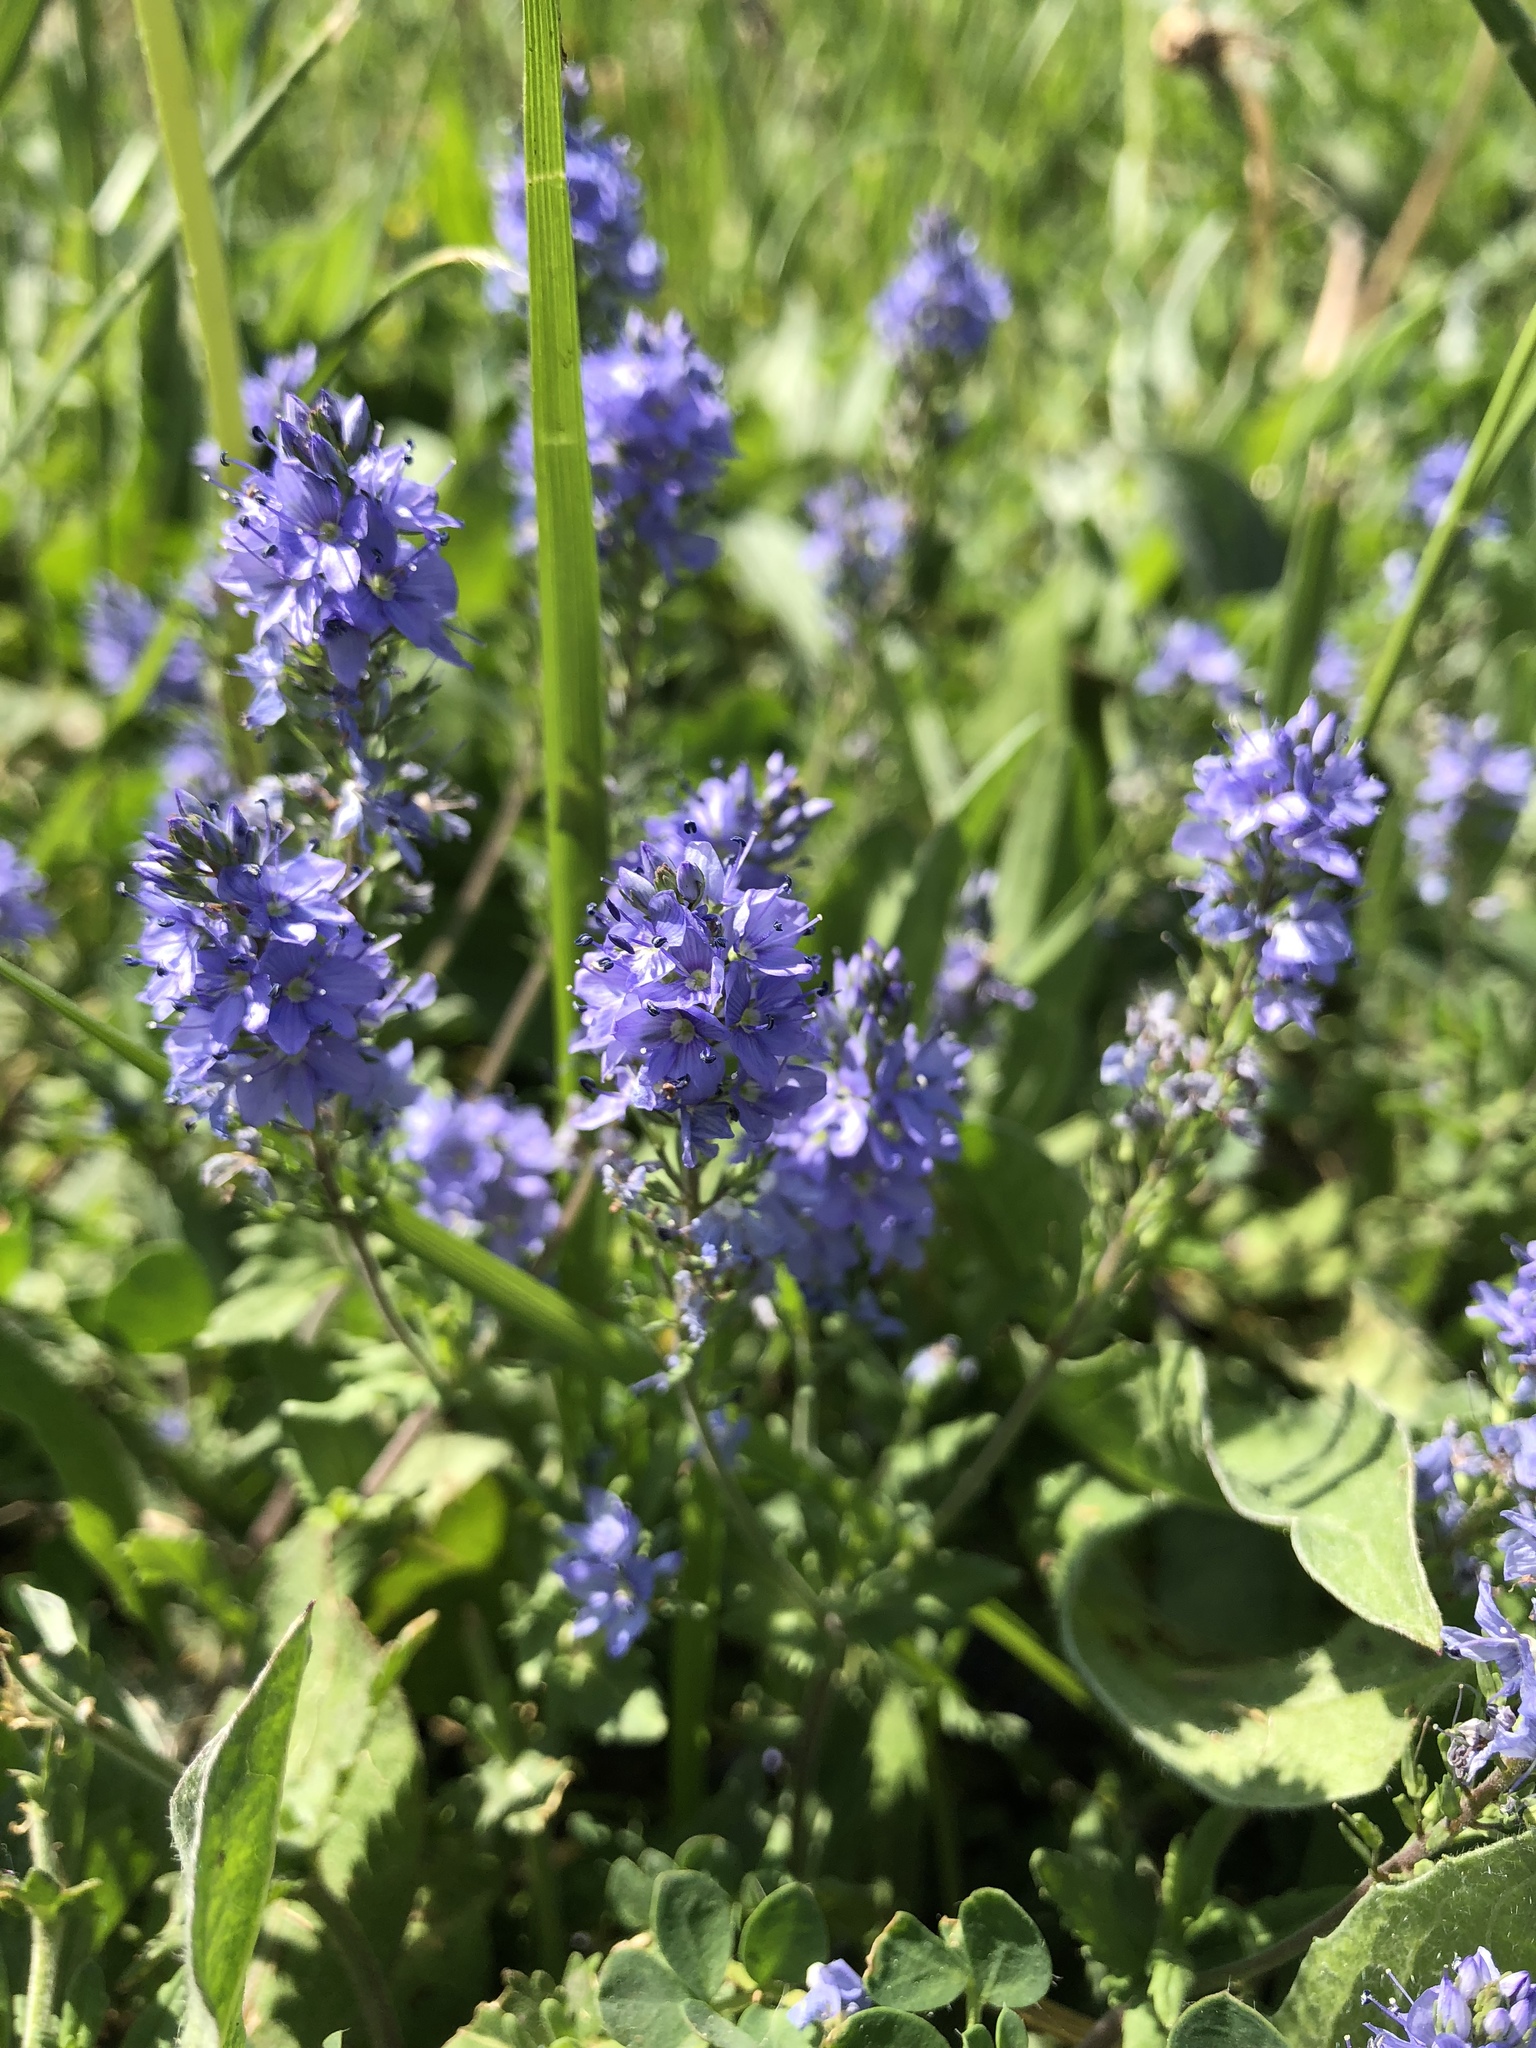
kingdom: Plantae
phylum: Tracheophyta
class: Magnoliopsida
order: Lamiales
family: Plantaginaceae
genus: Veronica
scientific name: Veronica prostrata
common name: Prostrate speedwell
